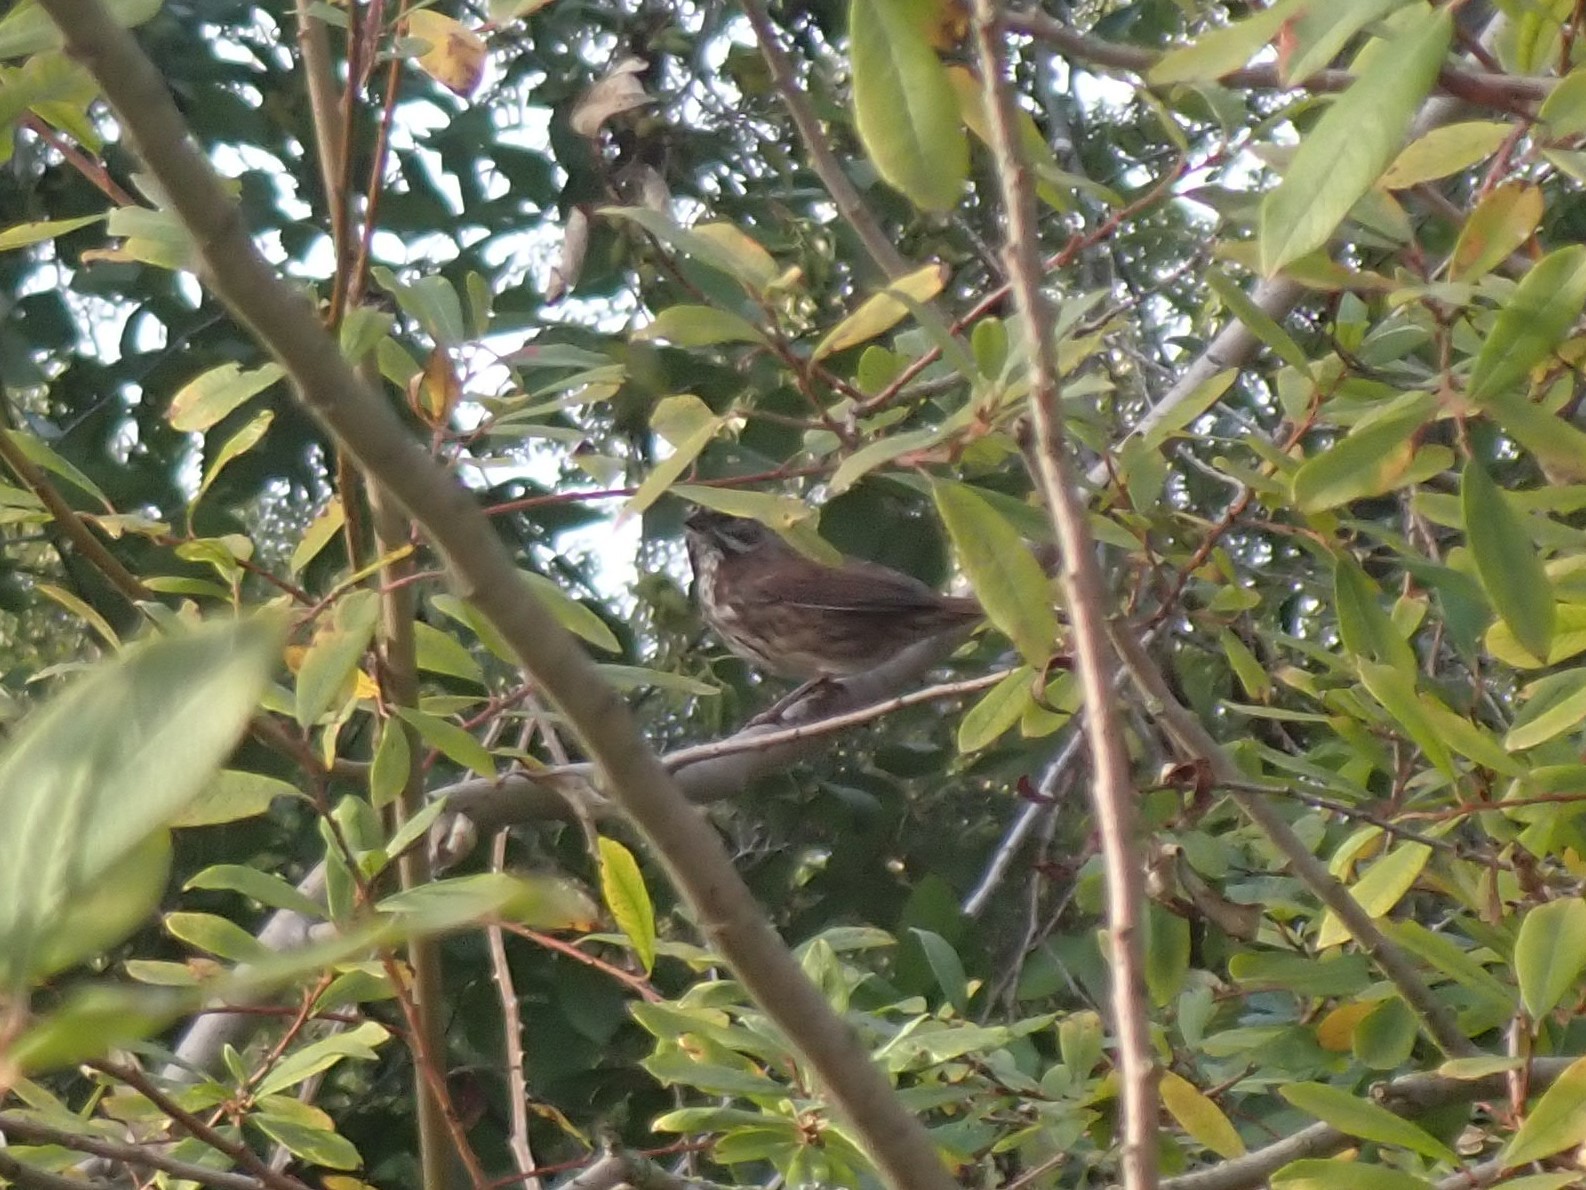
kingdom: Animalia
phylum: Chordata
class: Aves
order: Passeriformes
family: Passerellidae
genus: Melospiza
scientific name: Melospiza melodia
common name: Song sparrow
